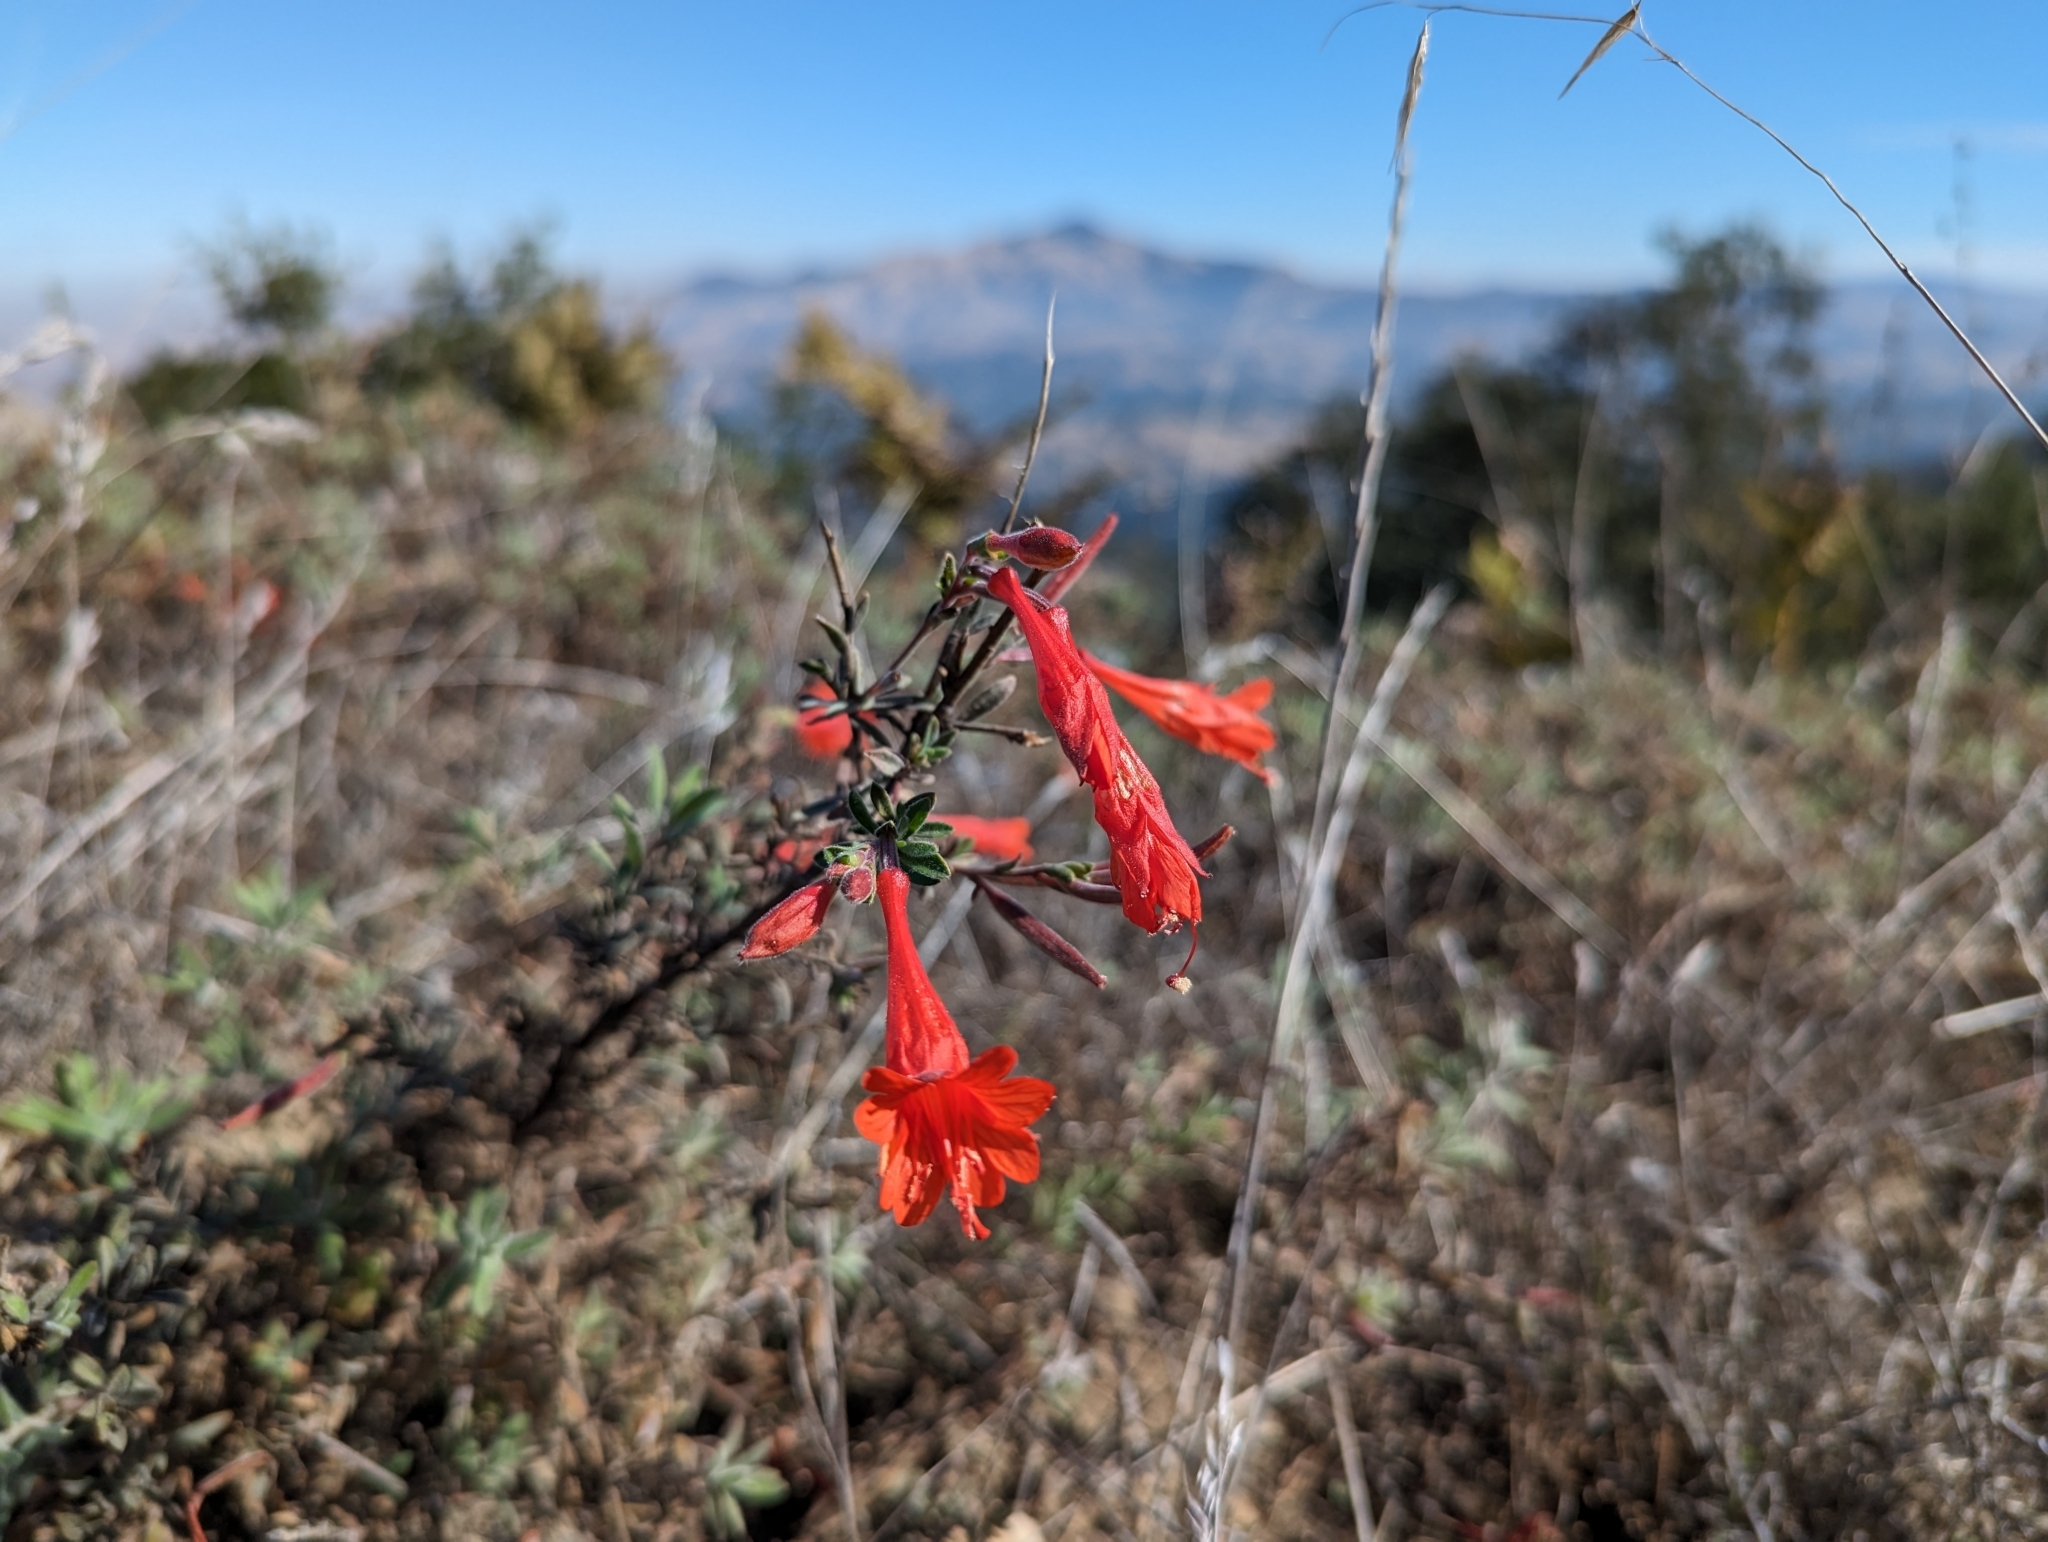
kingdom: Plantae
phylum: Tracheophyta
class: Magnoliopsida
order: Myrtales
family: Onagraceae
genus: Epilobium
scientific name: Epilobium canum
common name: California-fuchsia
